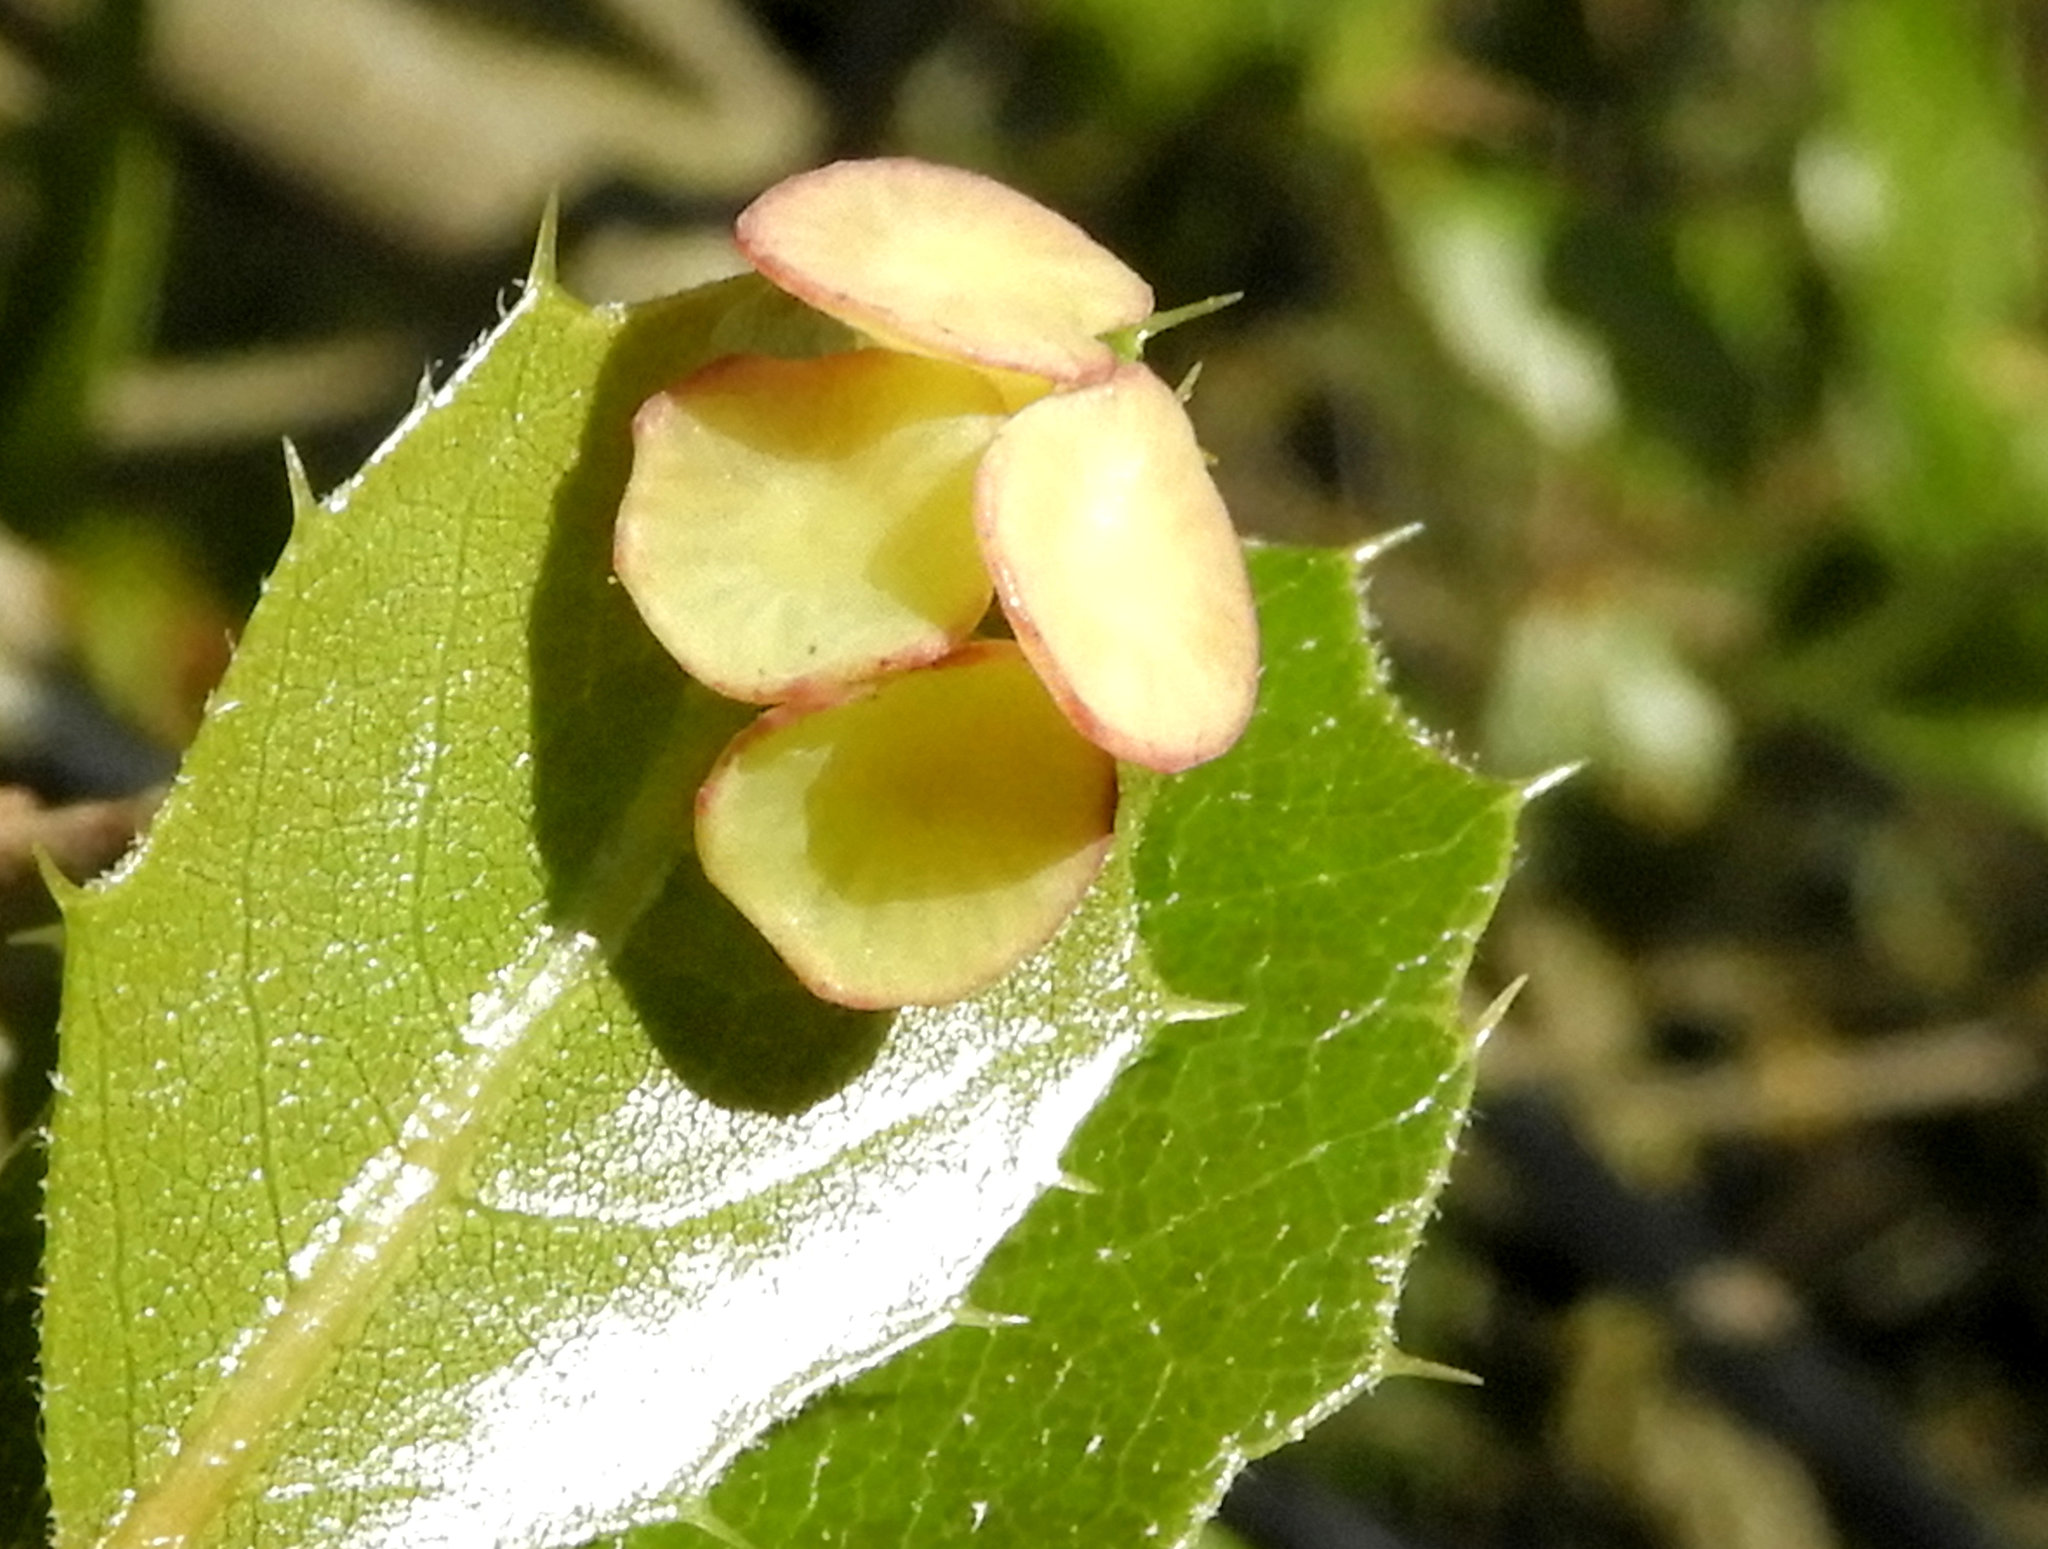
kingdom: Animalia
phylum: Arthropoda
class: Insecta
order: Hymenoptera
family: Cynipidae
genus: Amphibolips
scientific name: Amphibolips quercuspomiformis
